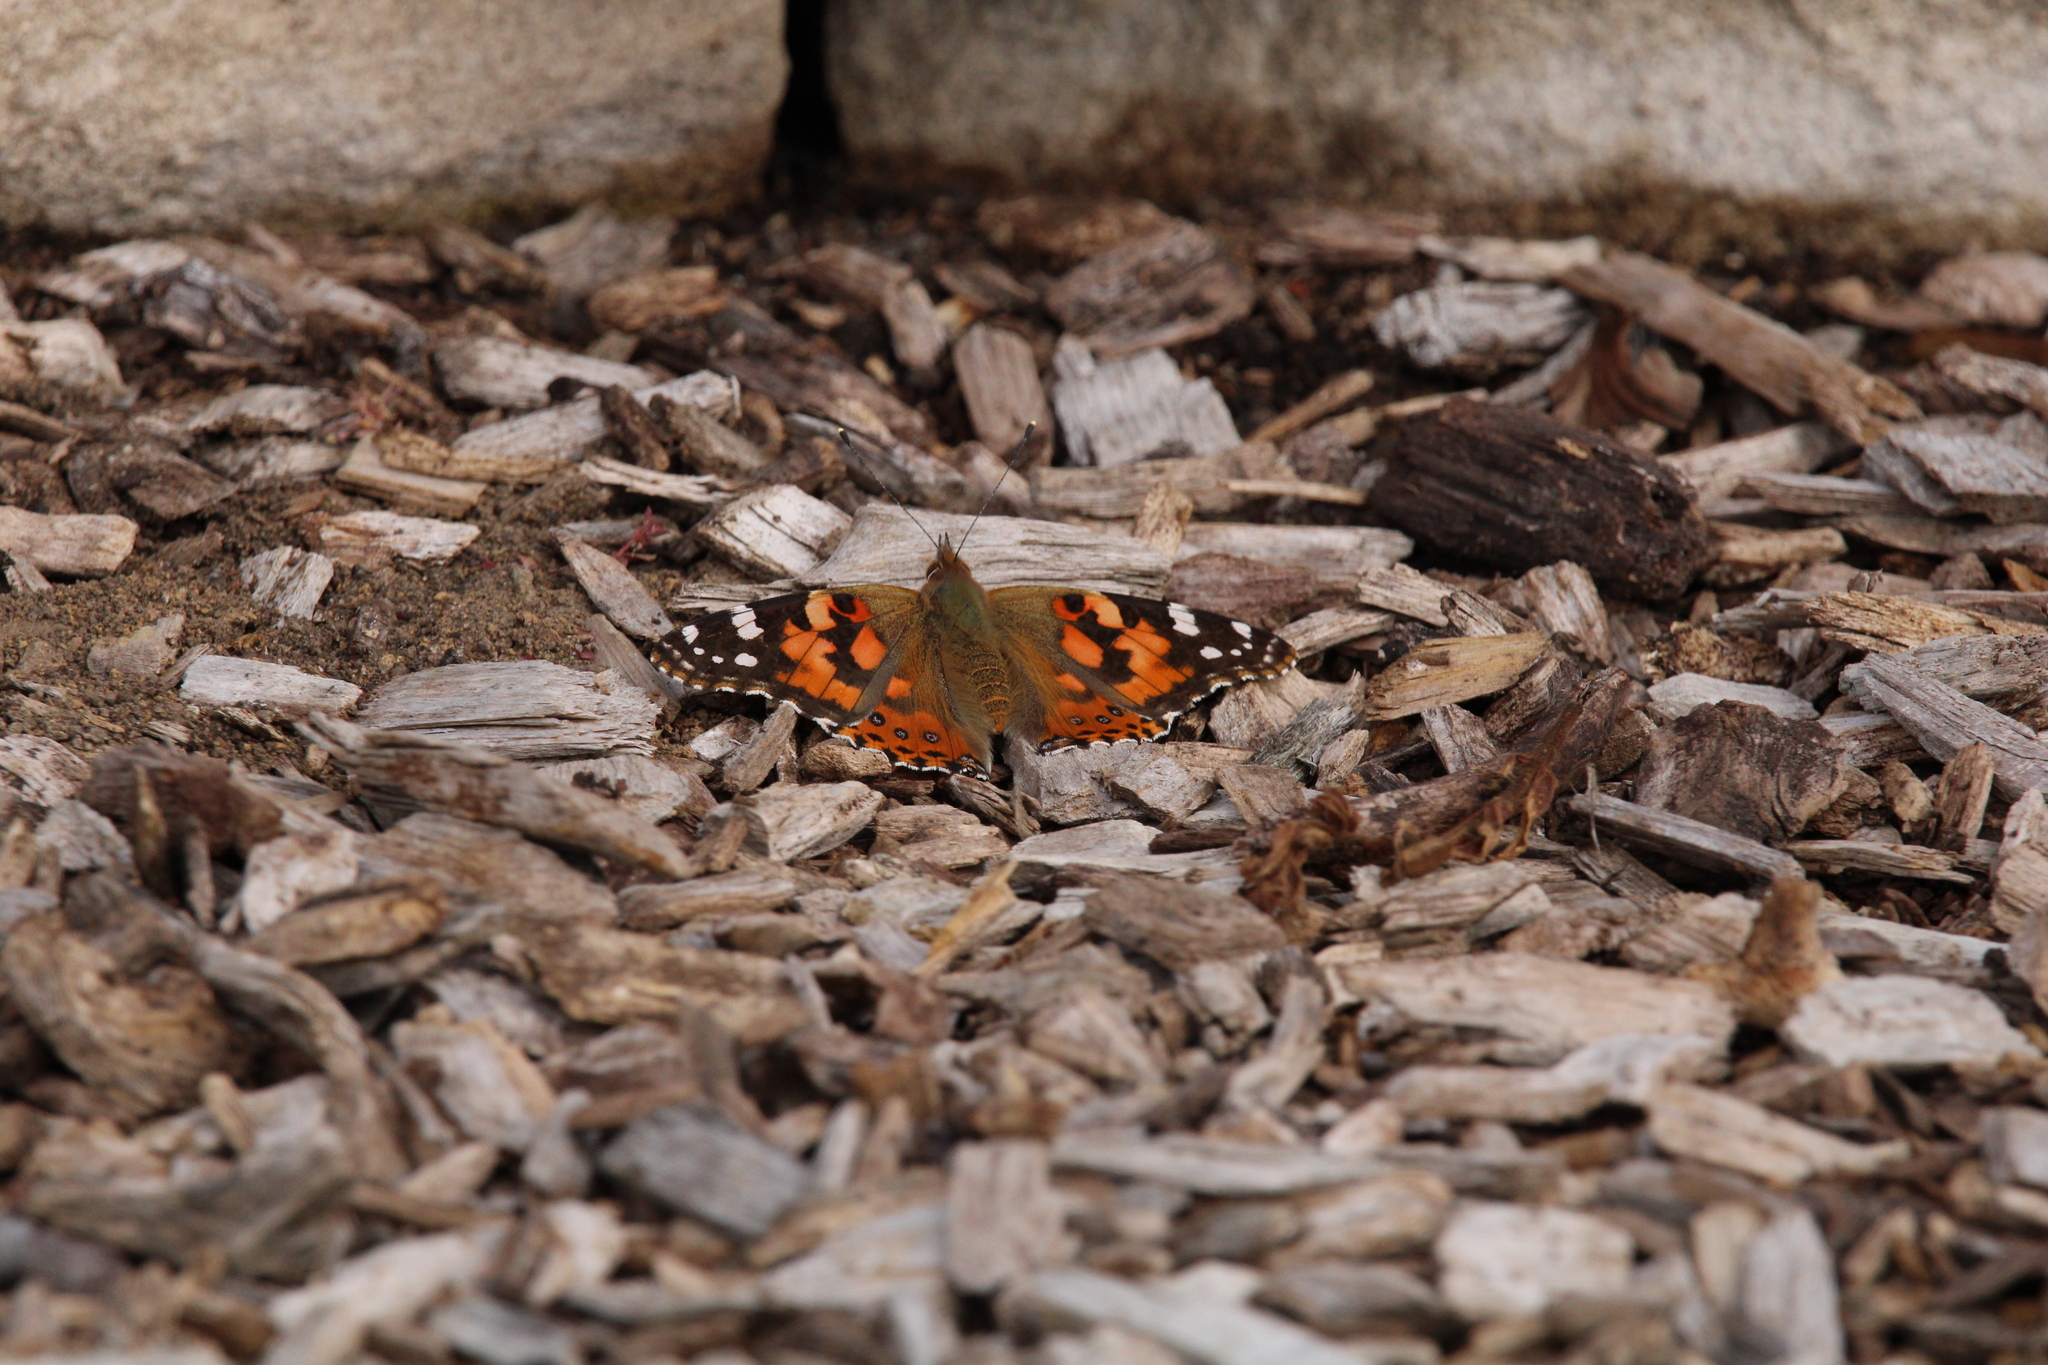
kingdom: Animalia
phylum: Arthropoda
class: Insecta
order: Lepidoptera
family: Nymphalidae
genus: Vanessa
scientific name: Vanessa cardui
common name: Painted lady
